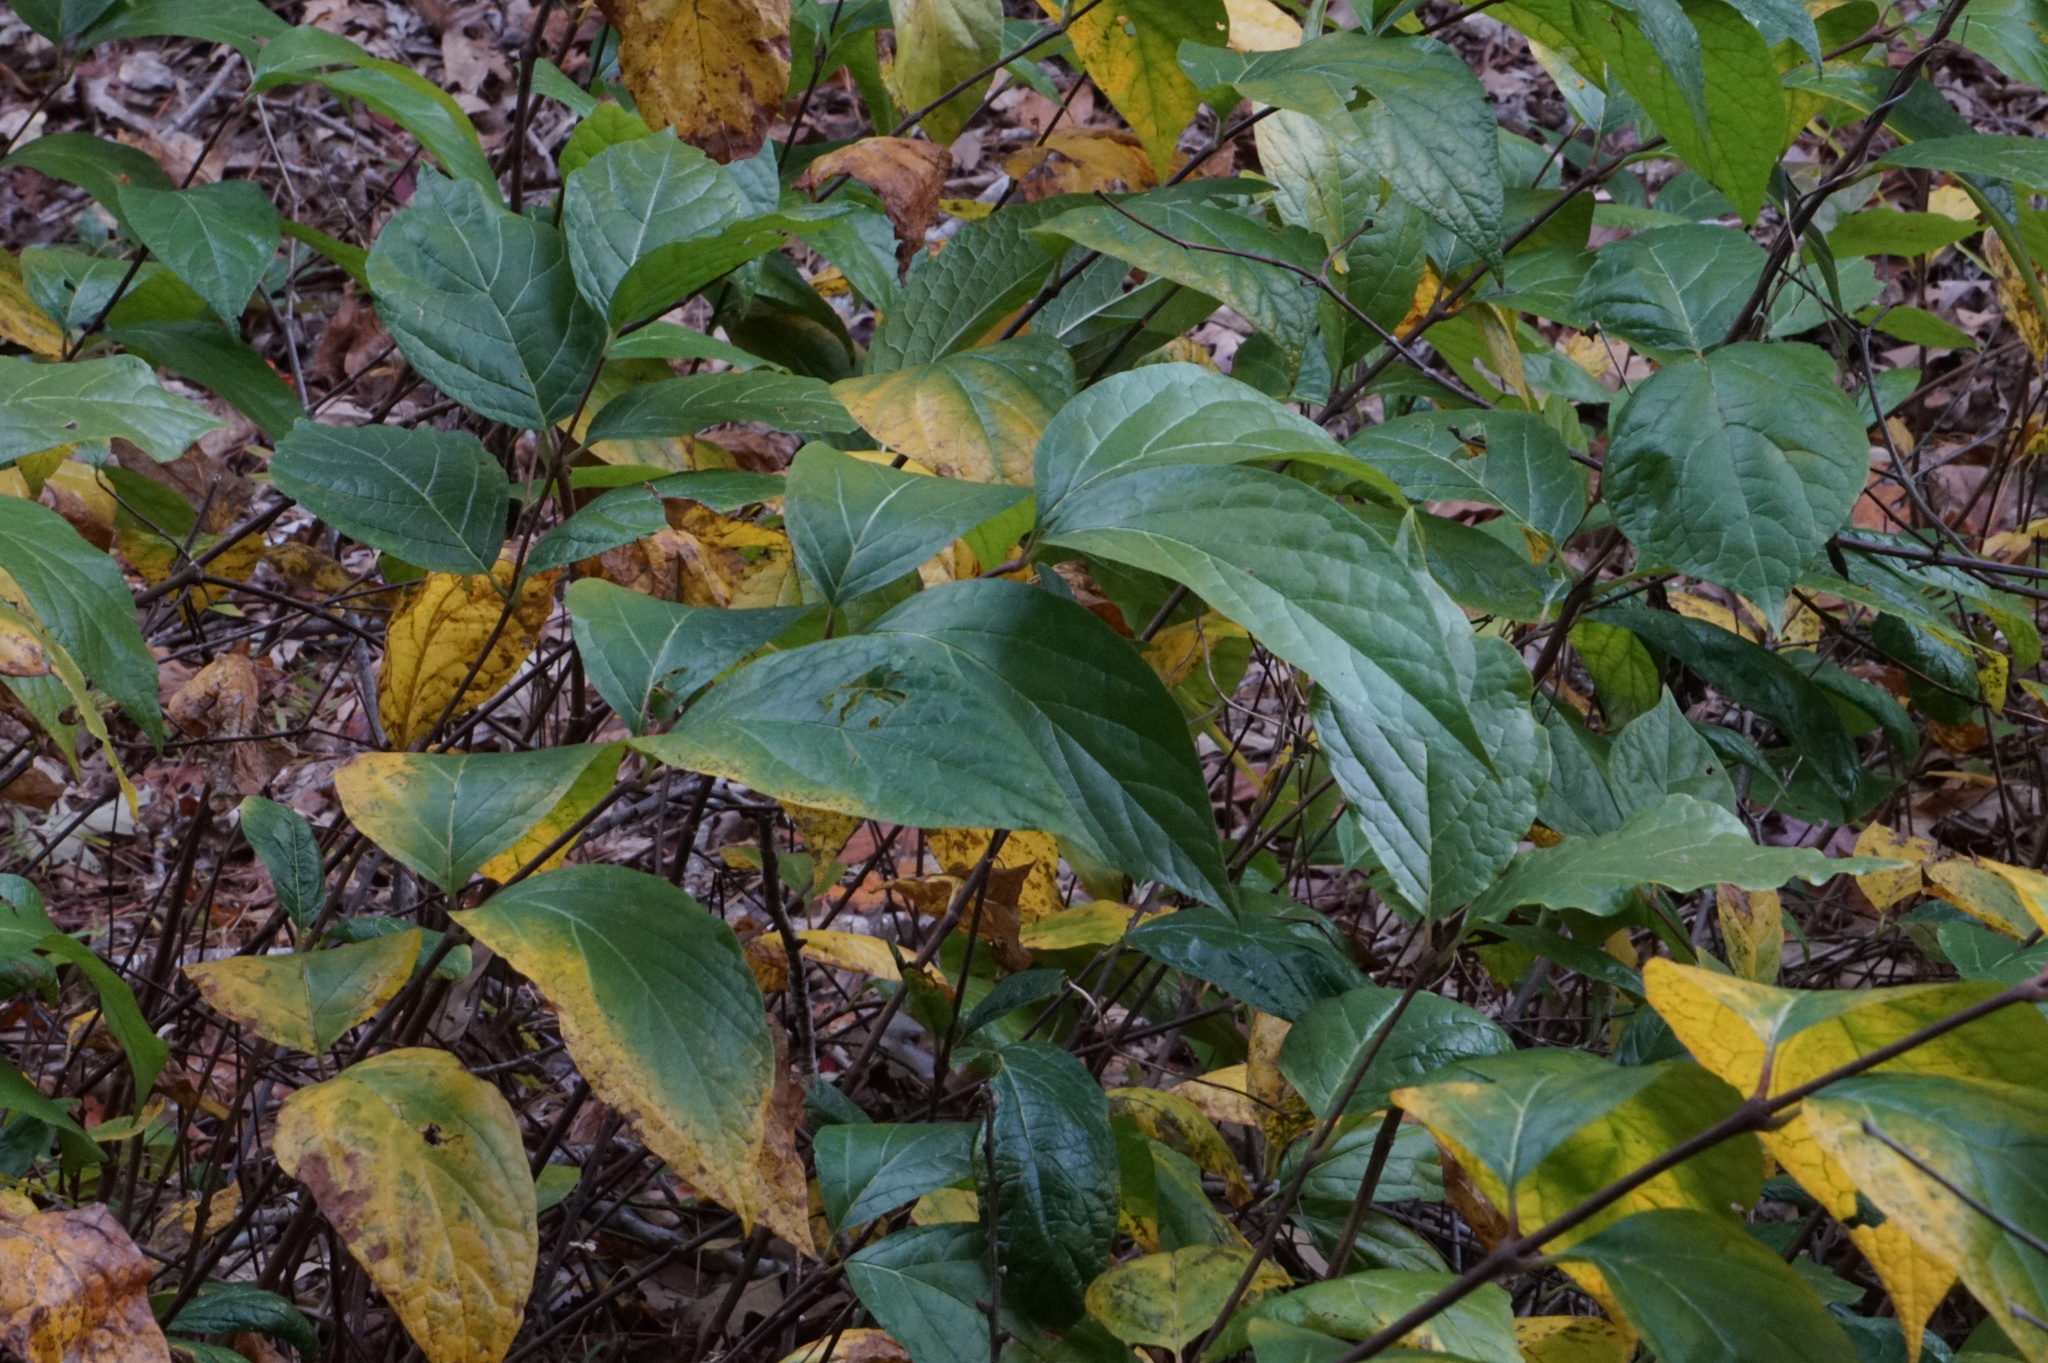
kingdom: Plantae
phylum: Tracheophyta
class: Magnoliopsida
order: Laurales
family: Calycanthaceae
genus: Calycanthus
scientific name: Calycanthus floridus
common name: Carolina-allspice
